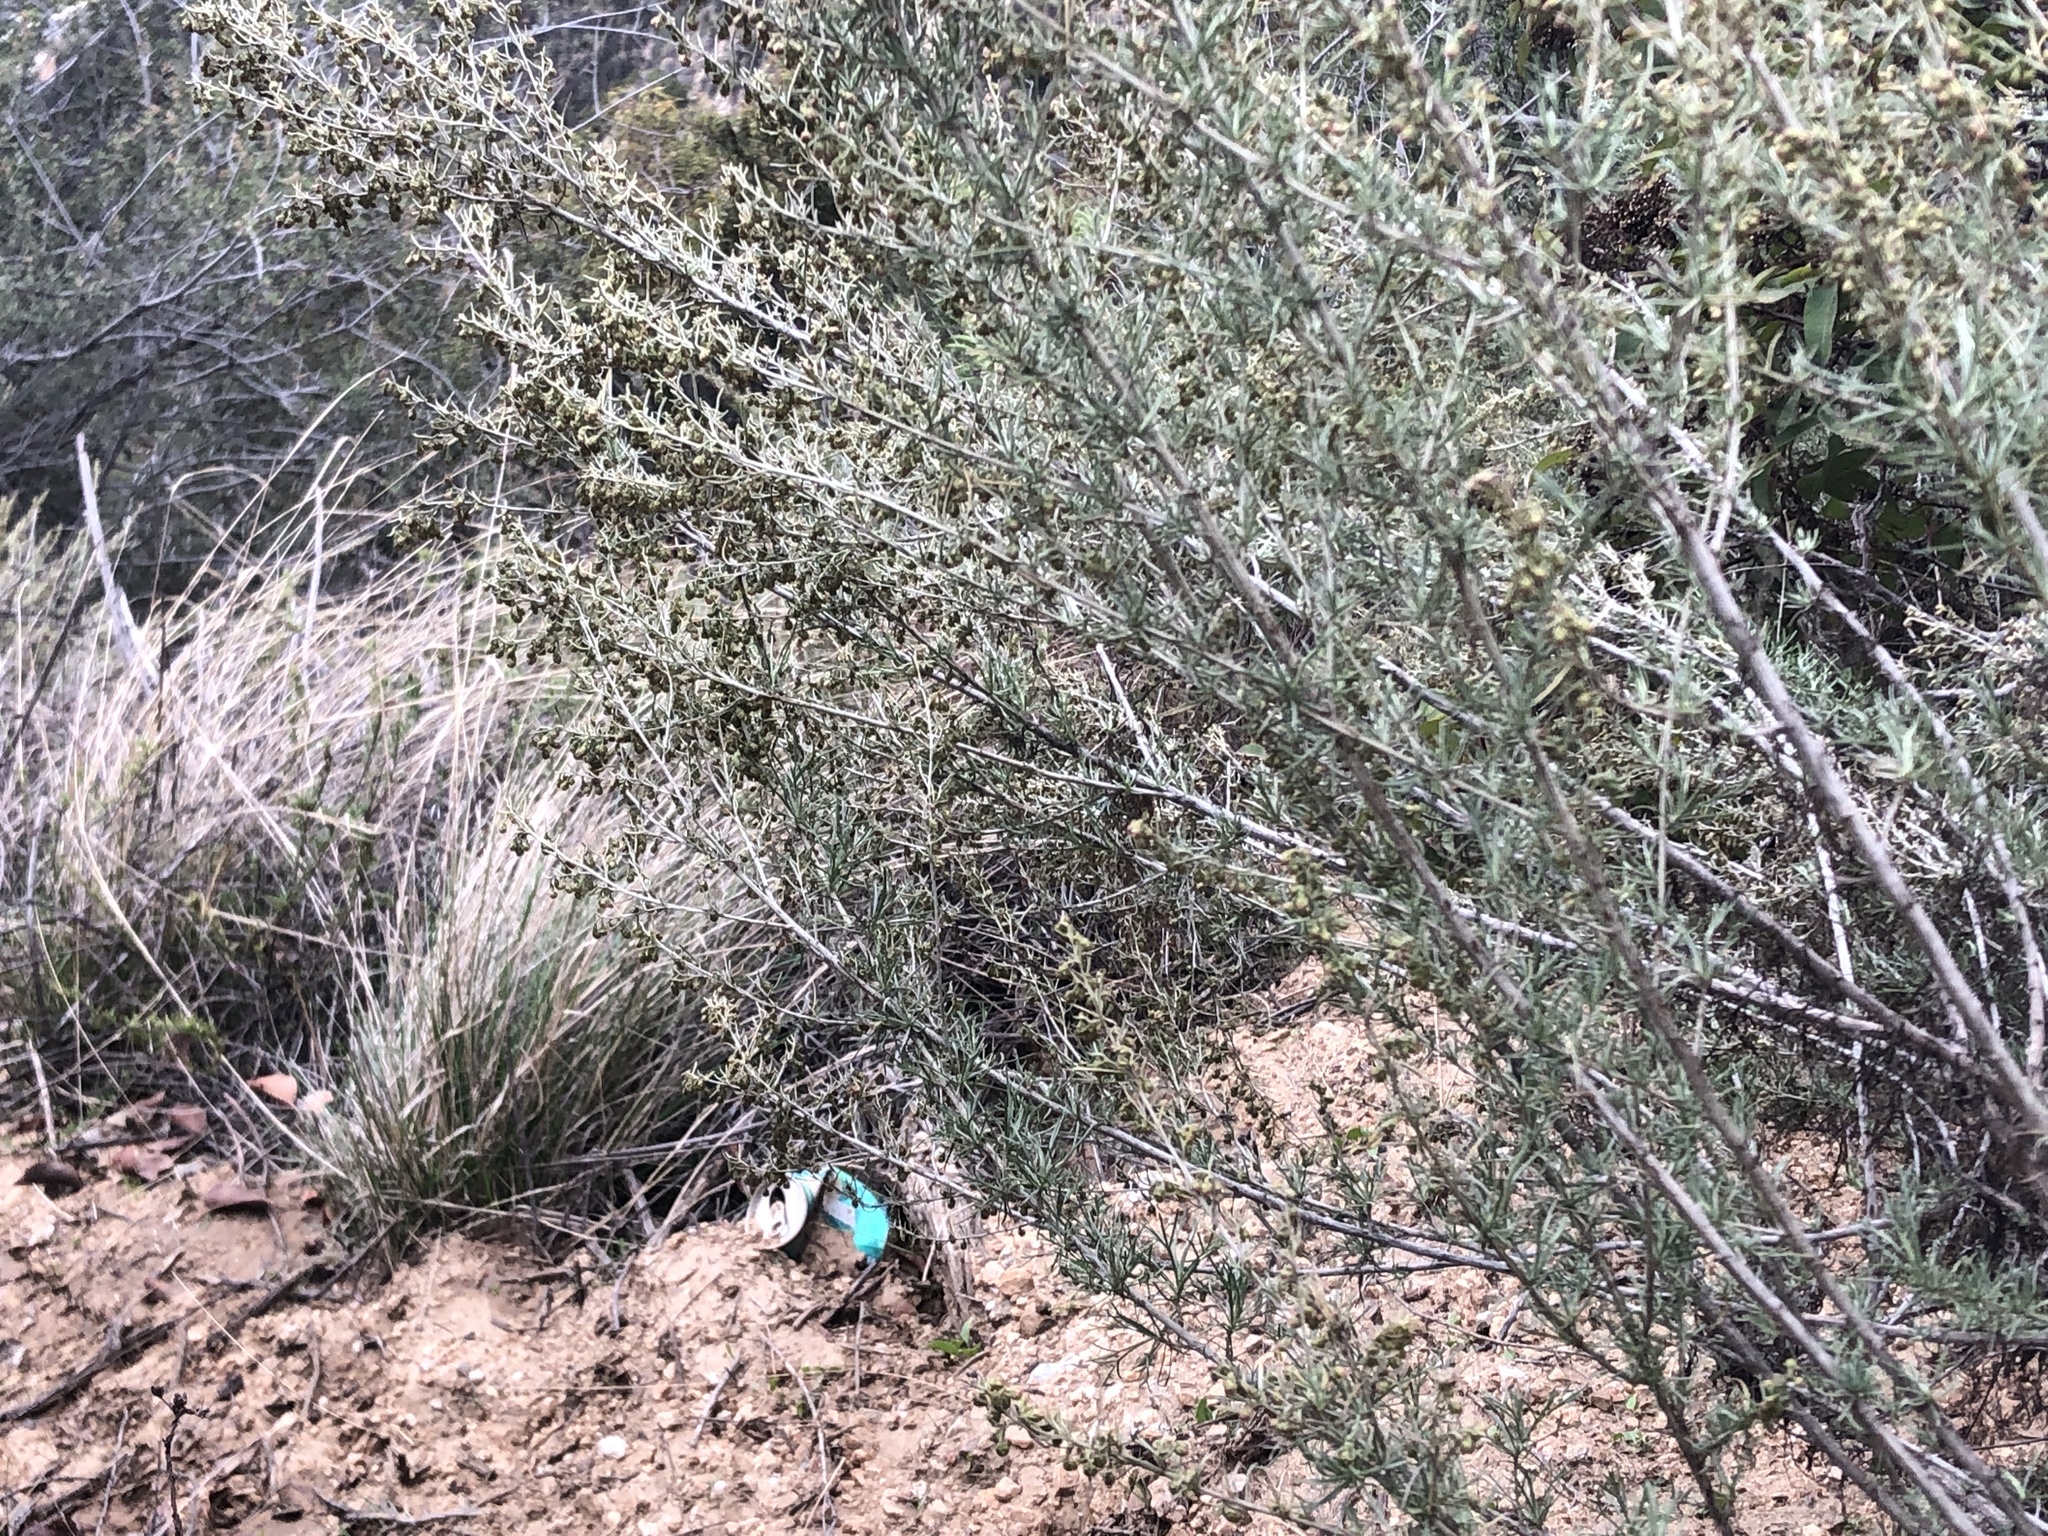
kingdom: Plantae
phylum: Tracheophyta
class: Magnoliopsida
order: Asterales
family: Asteraceae
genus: Artemisia
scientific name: Artemisia californica
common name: California sagebrush
